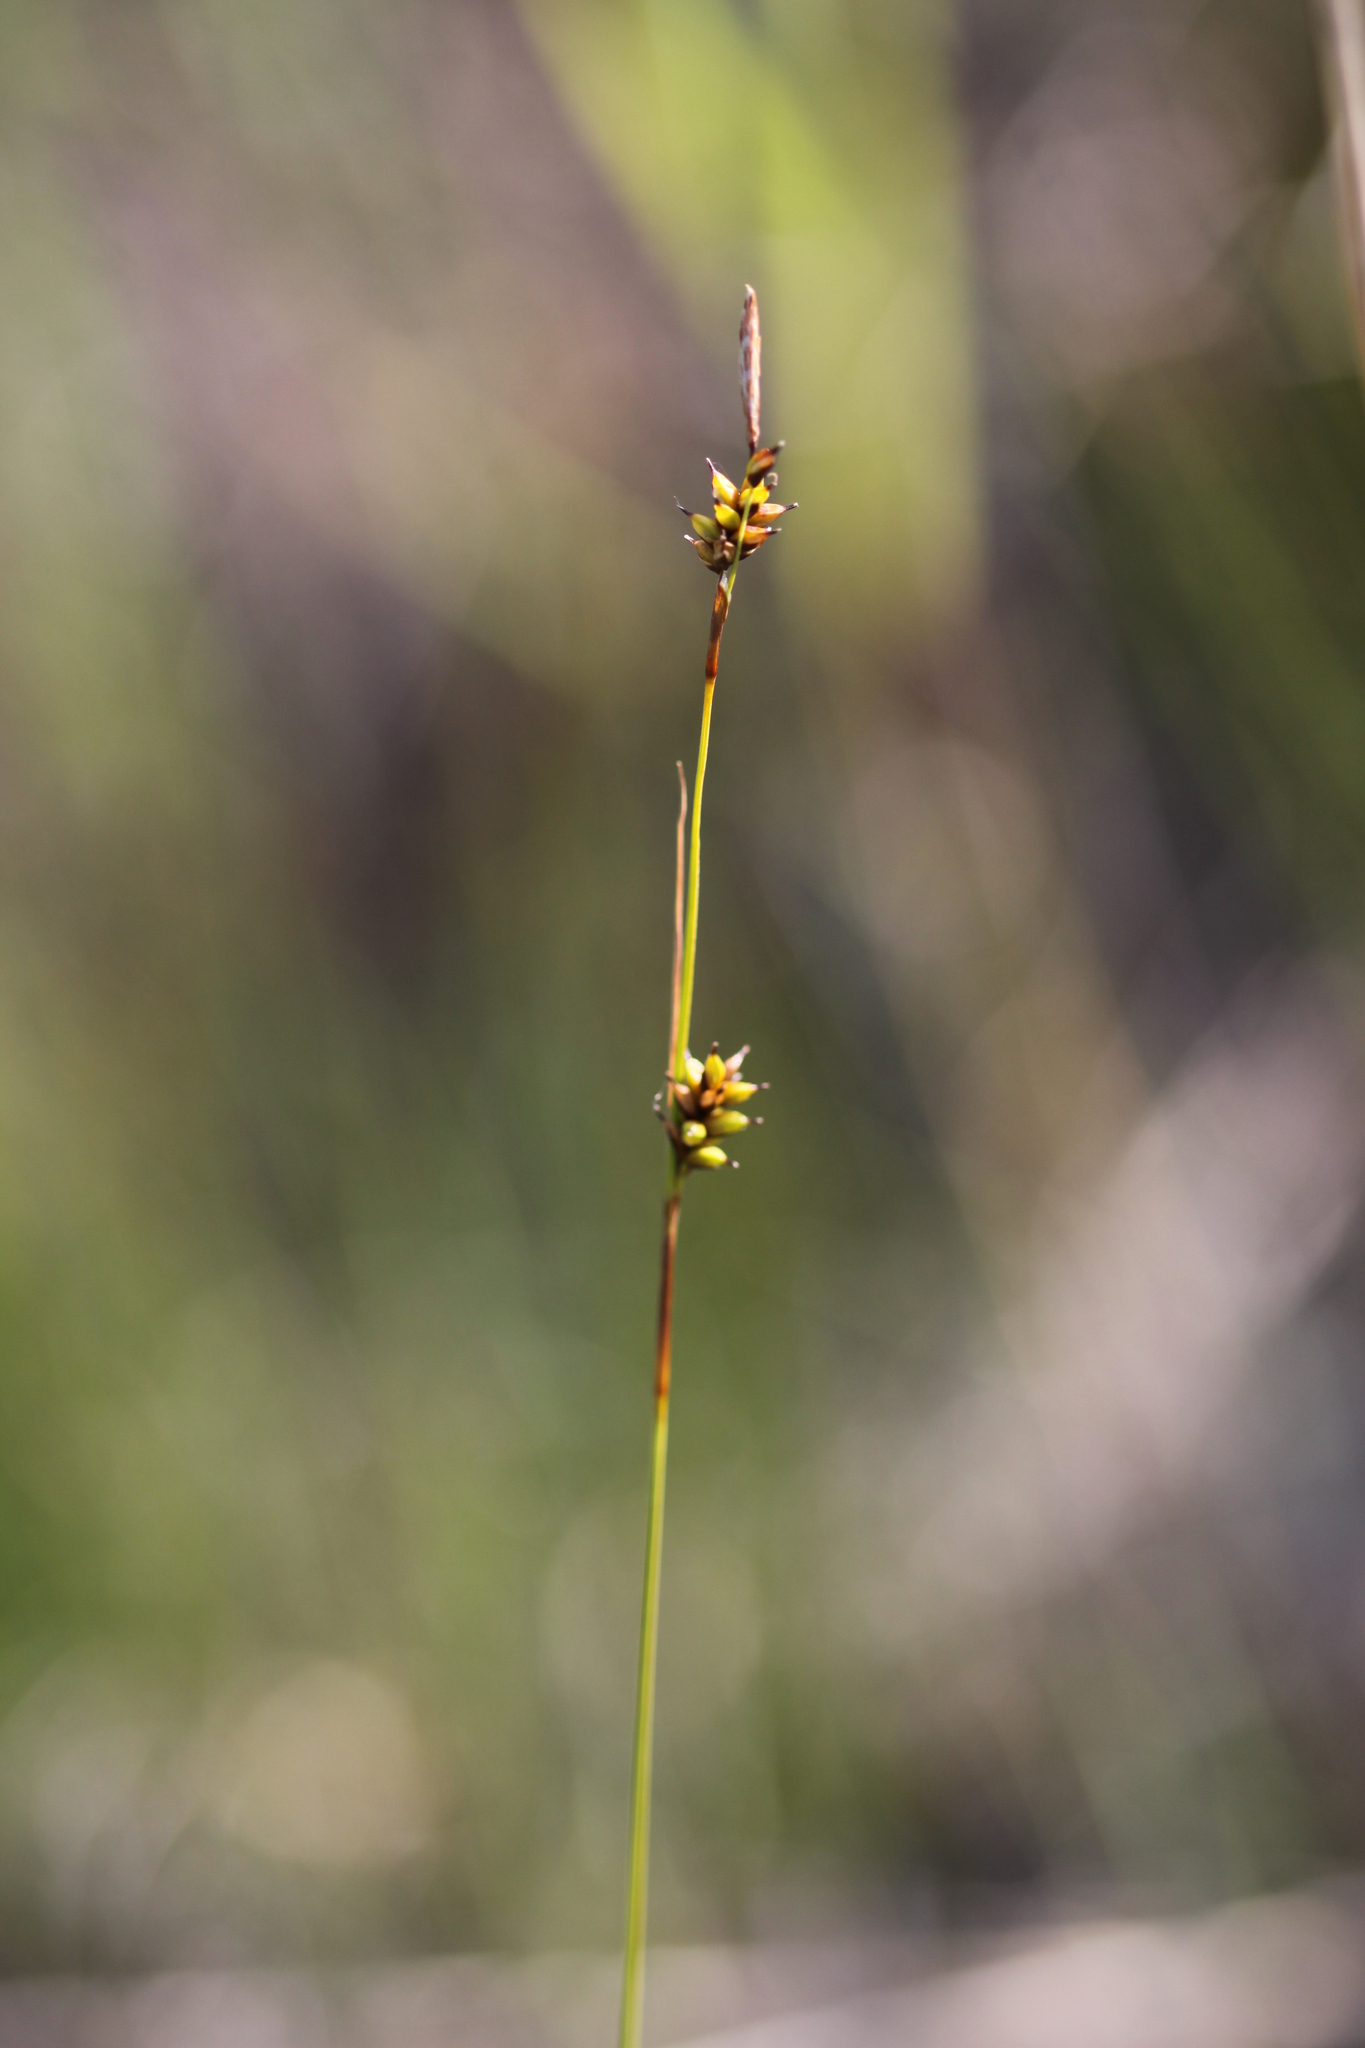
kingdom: Plantae
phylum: Tracheophyta
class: Liliopsida
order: Poales
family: Cyperaceae
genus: Carex
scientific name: Carex hostiana
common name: Tawny sedge
